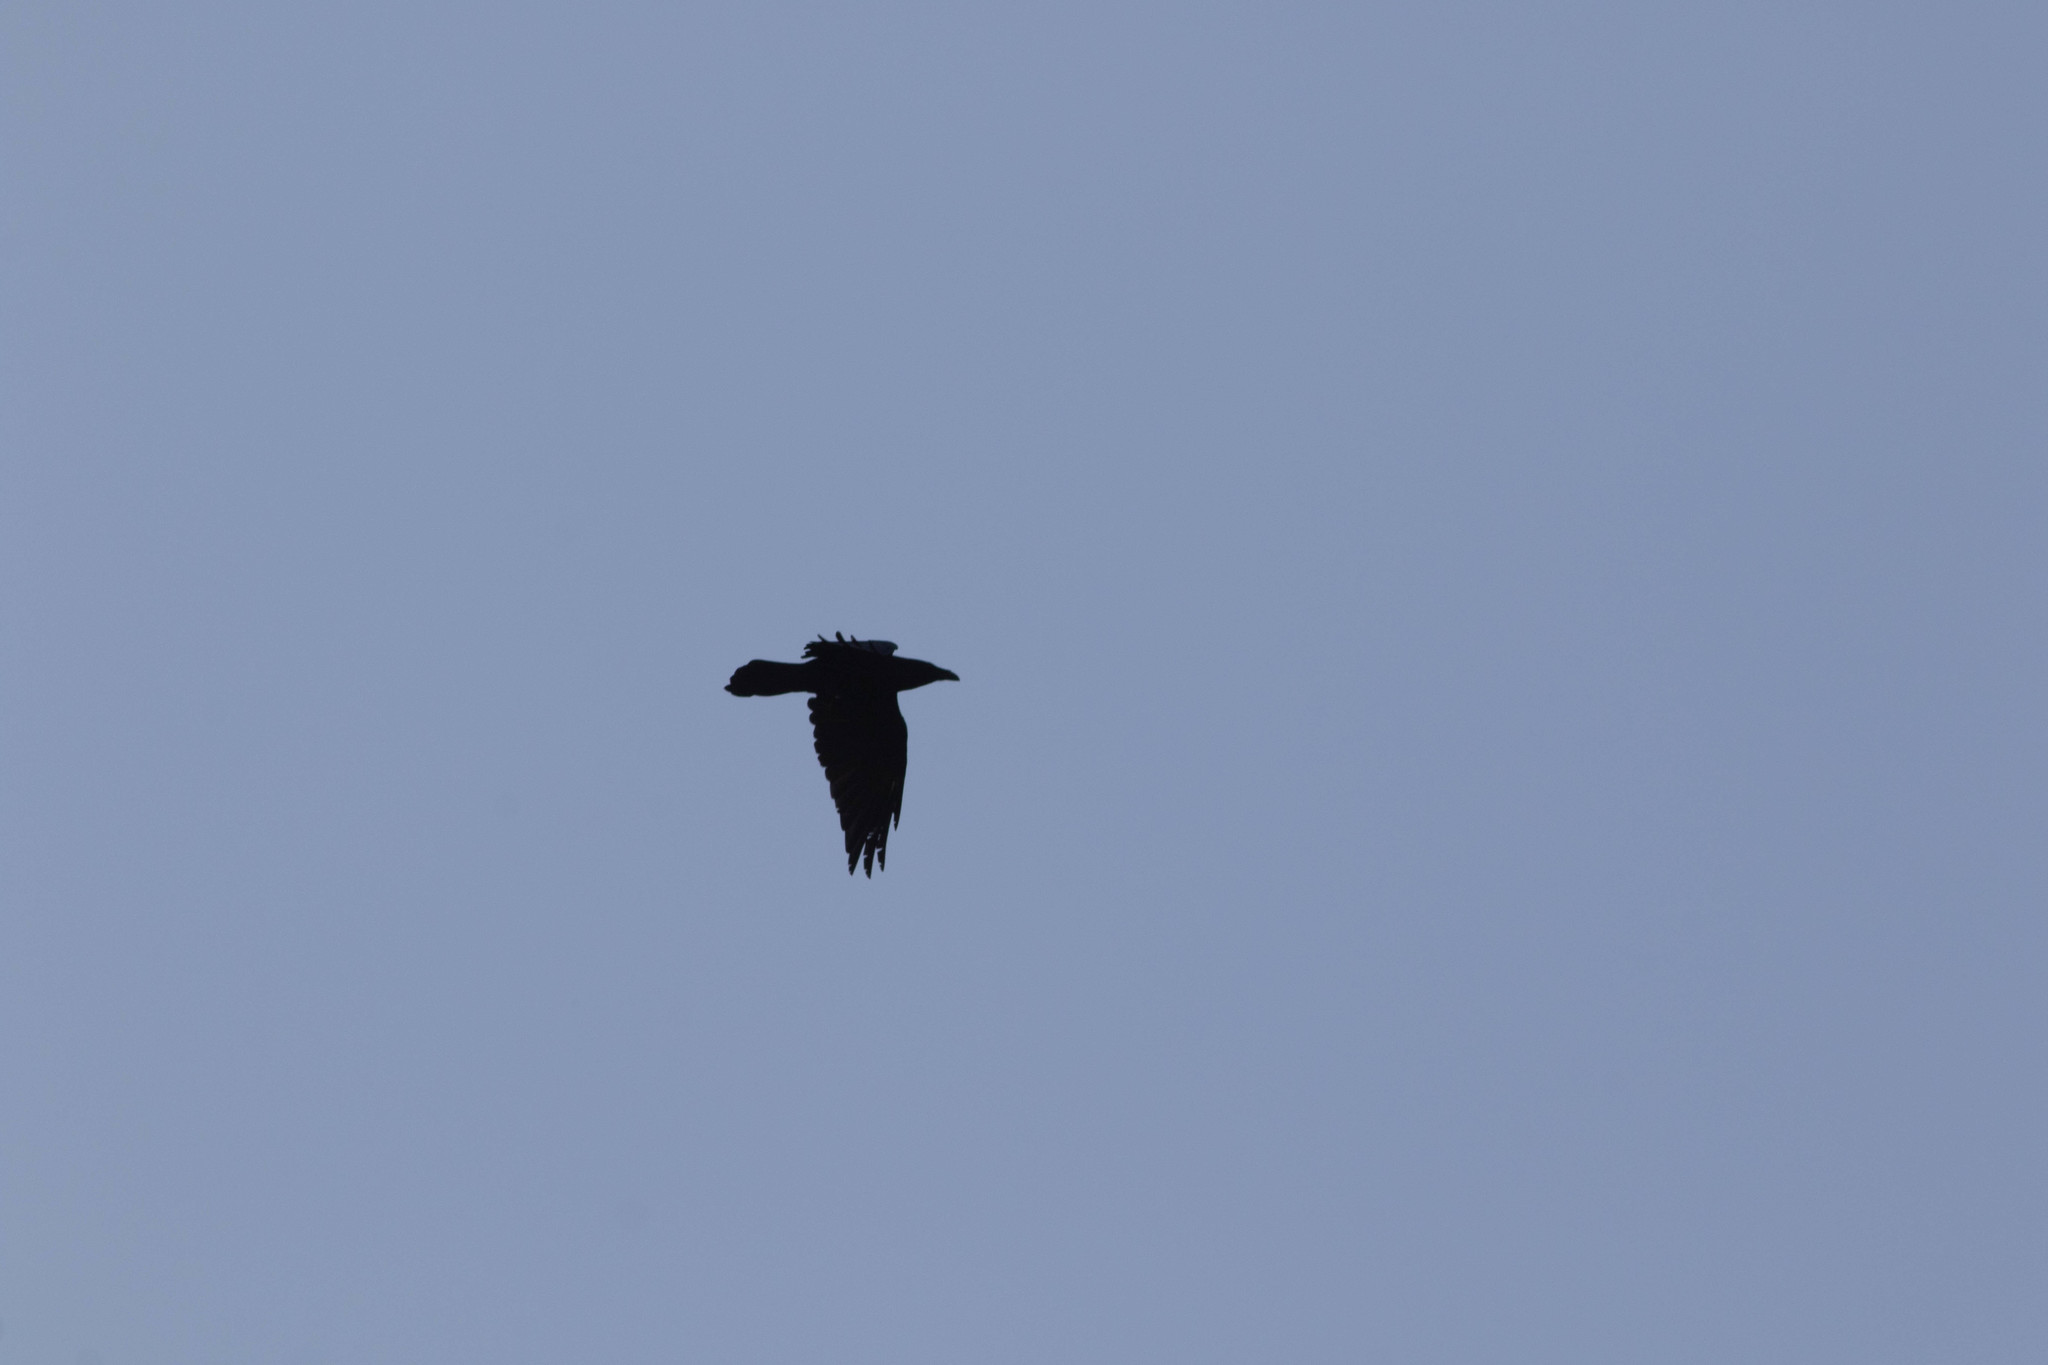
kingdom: Animalia
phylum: Chordata
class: Aves
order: Passeriformes
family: Corvidae
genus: Corvus
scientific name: Corvus corax
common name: Common raven
